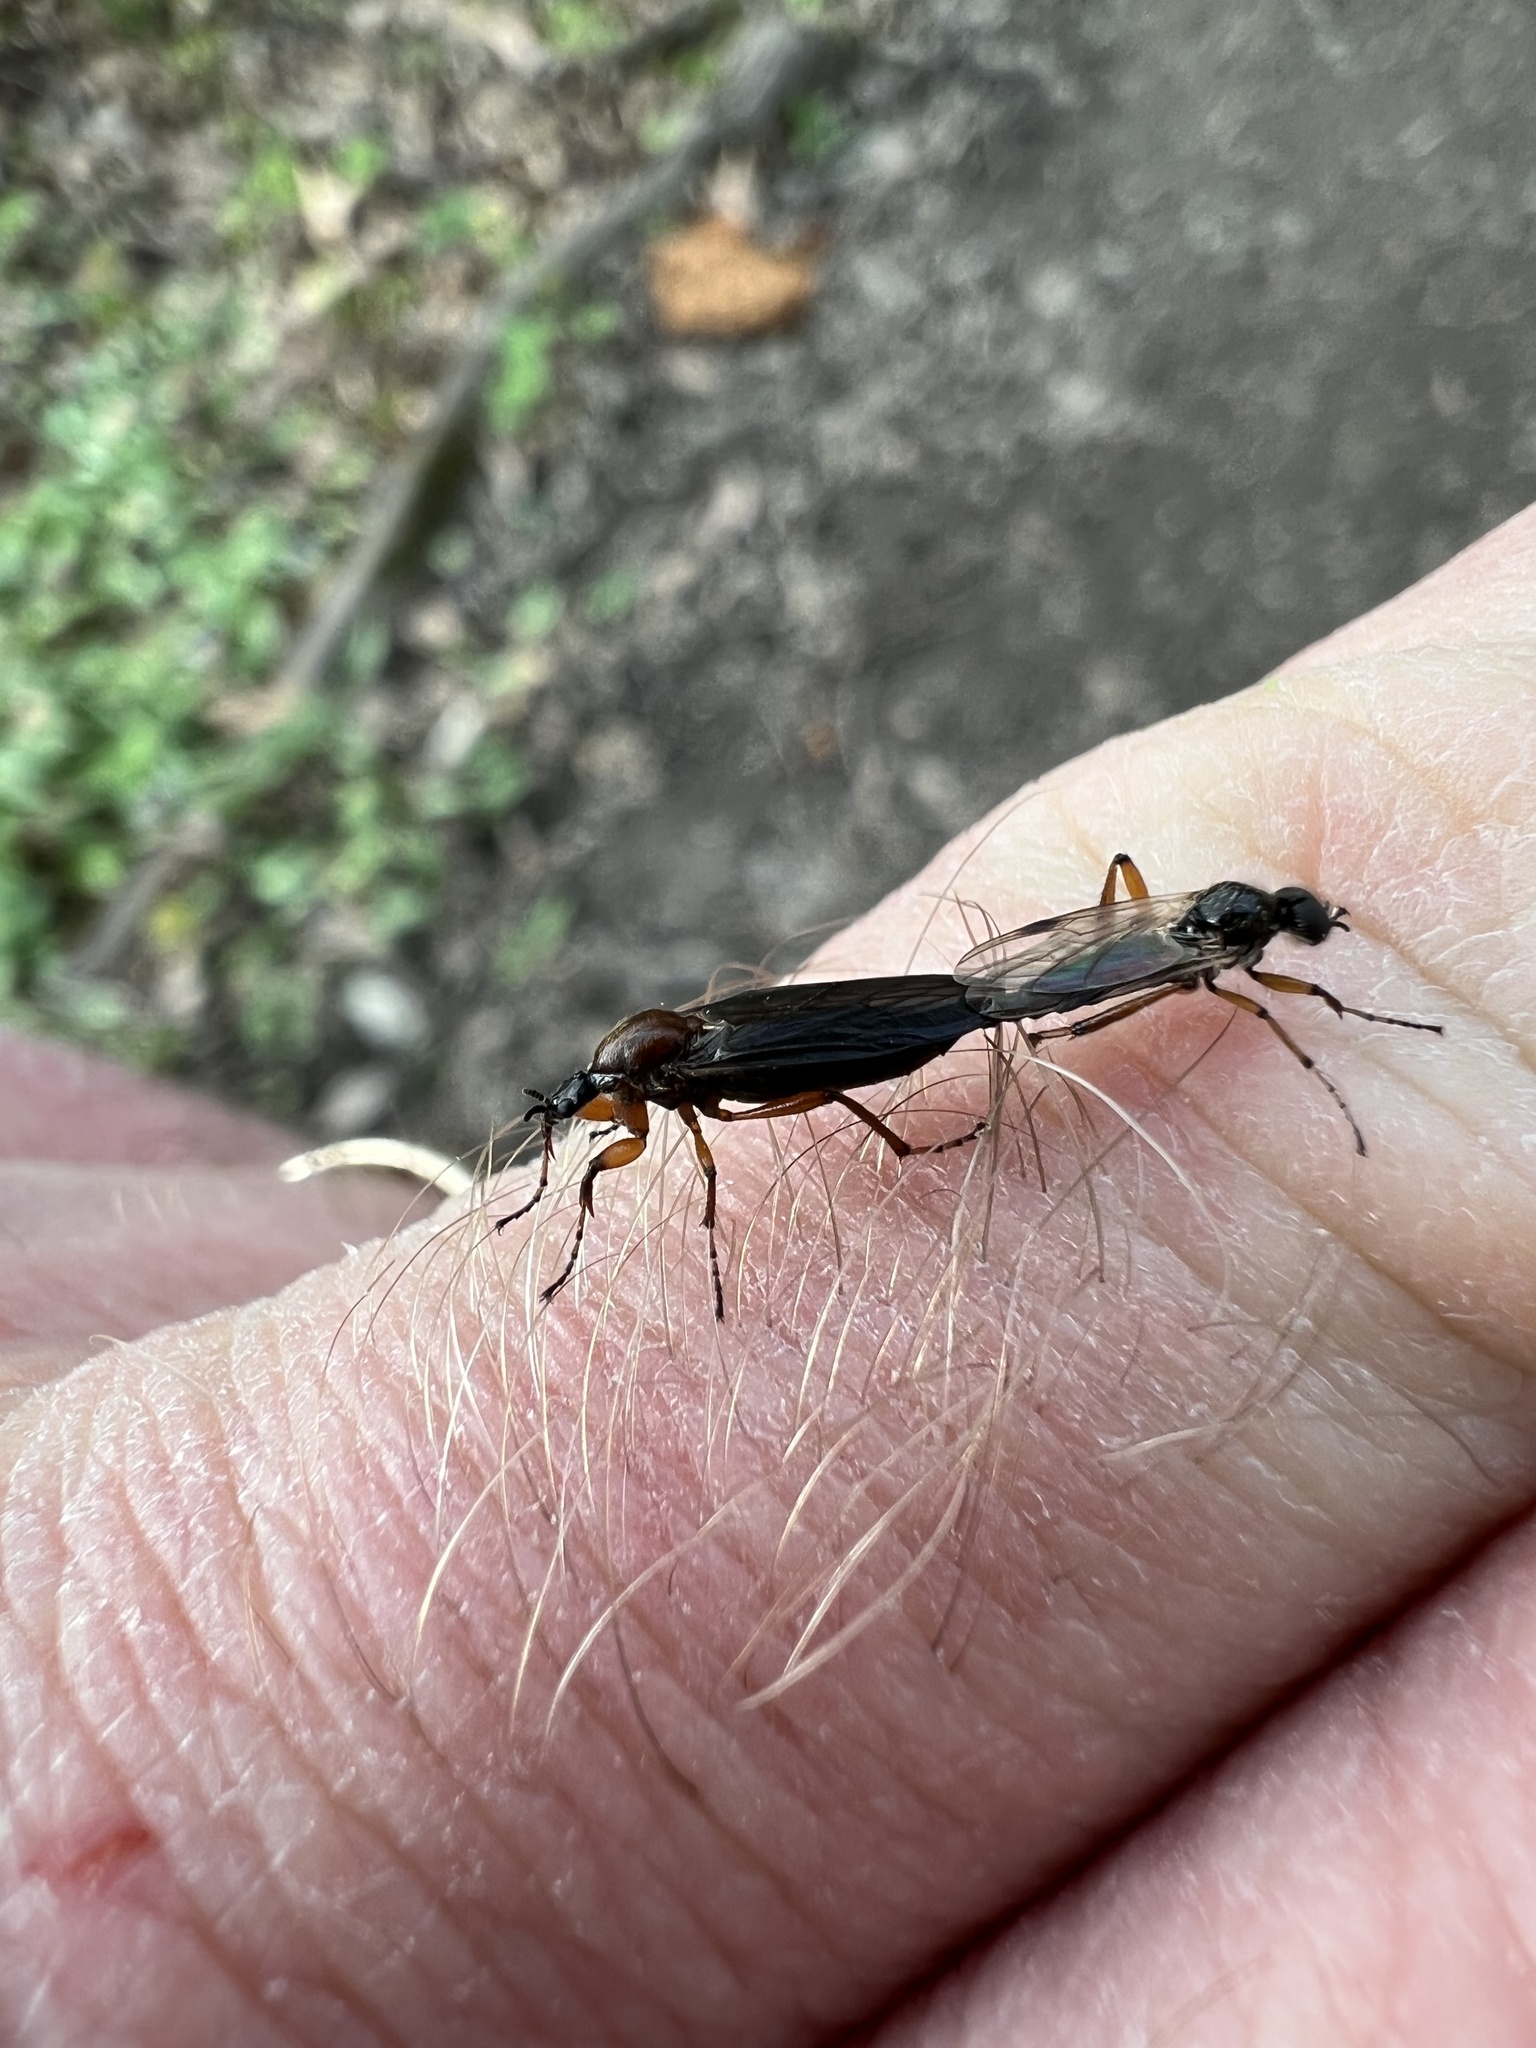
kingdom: Animalia
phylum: Arthropoda
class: Insecta
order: Diptera
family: Bibionidae
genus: Bibio
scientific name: Bibio articulatus
